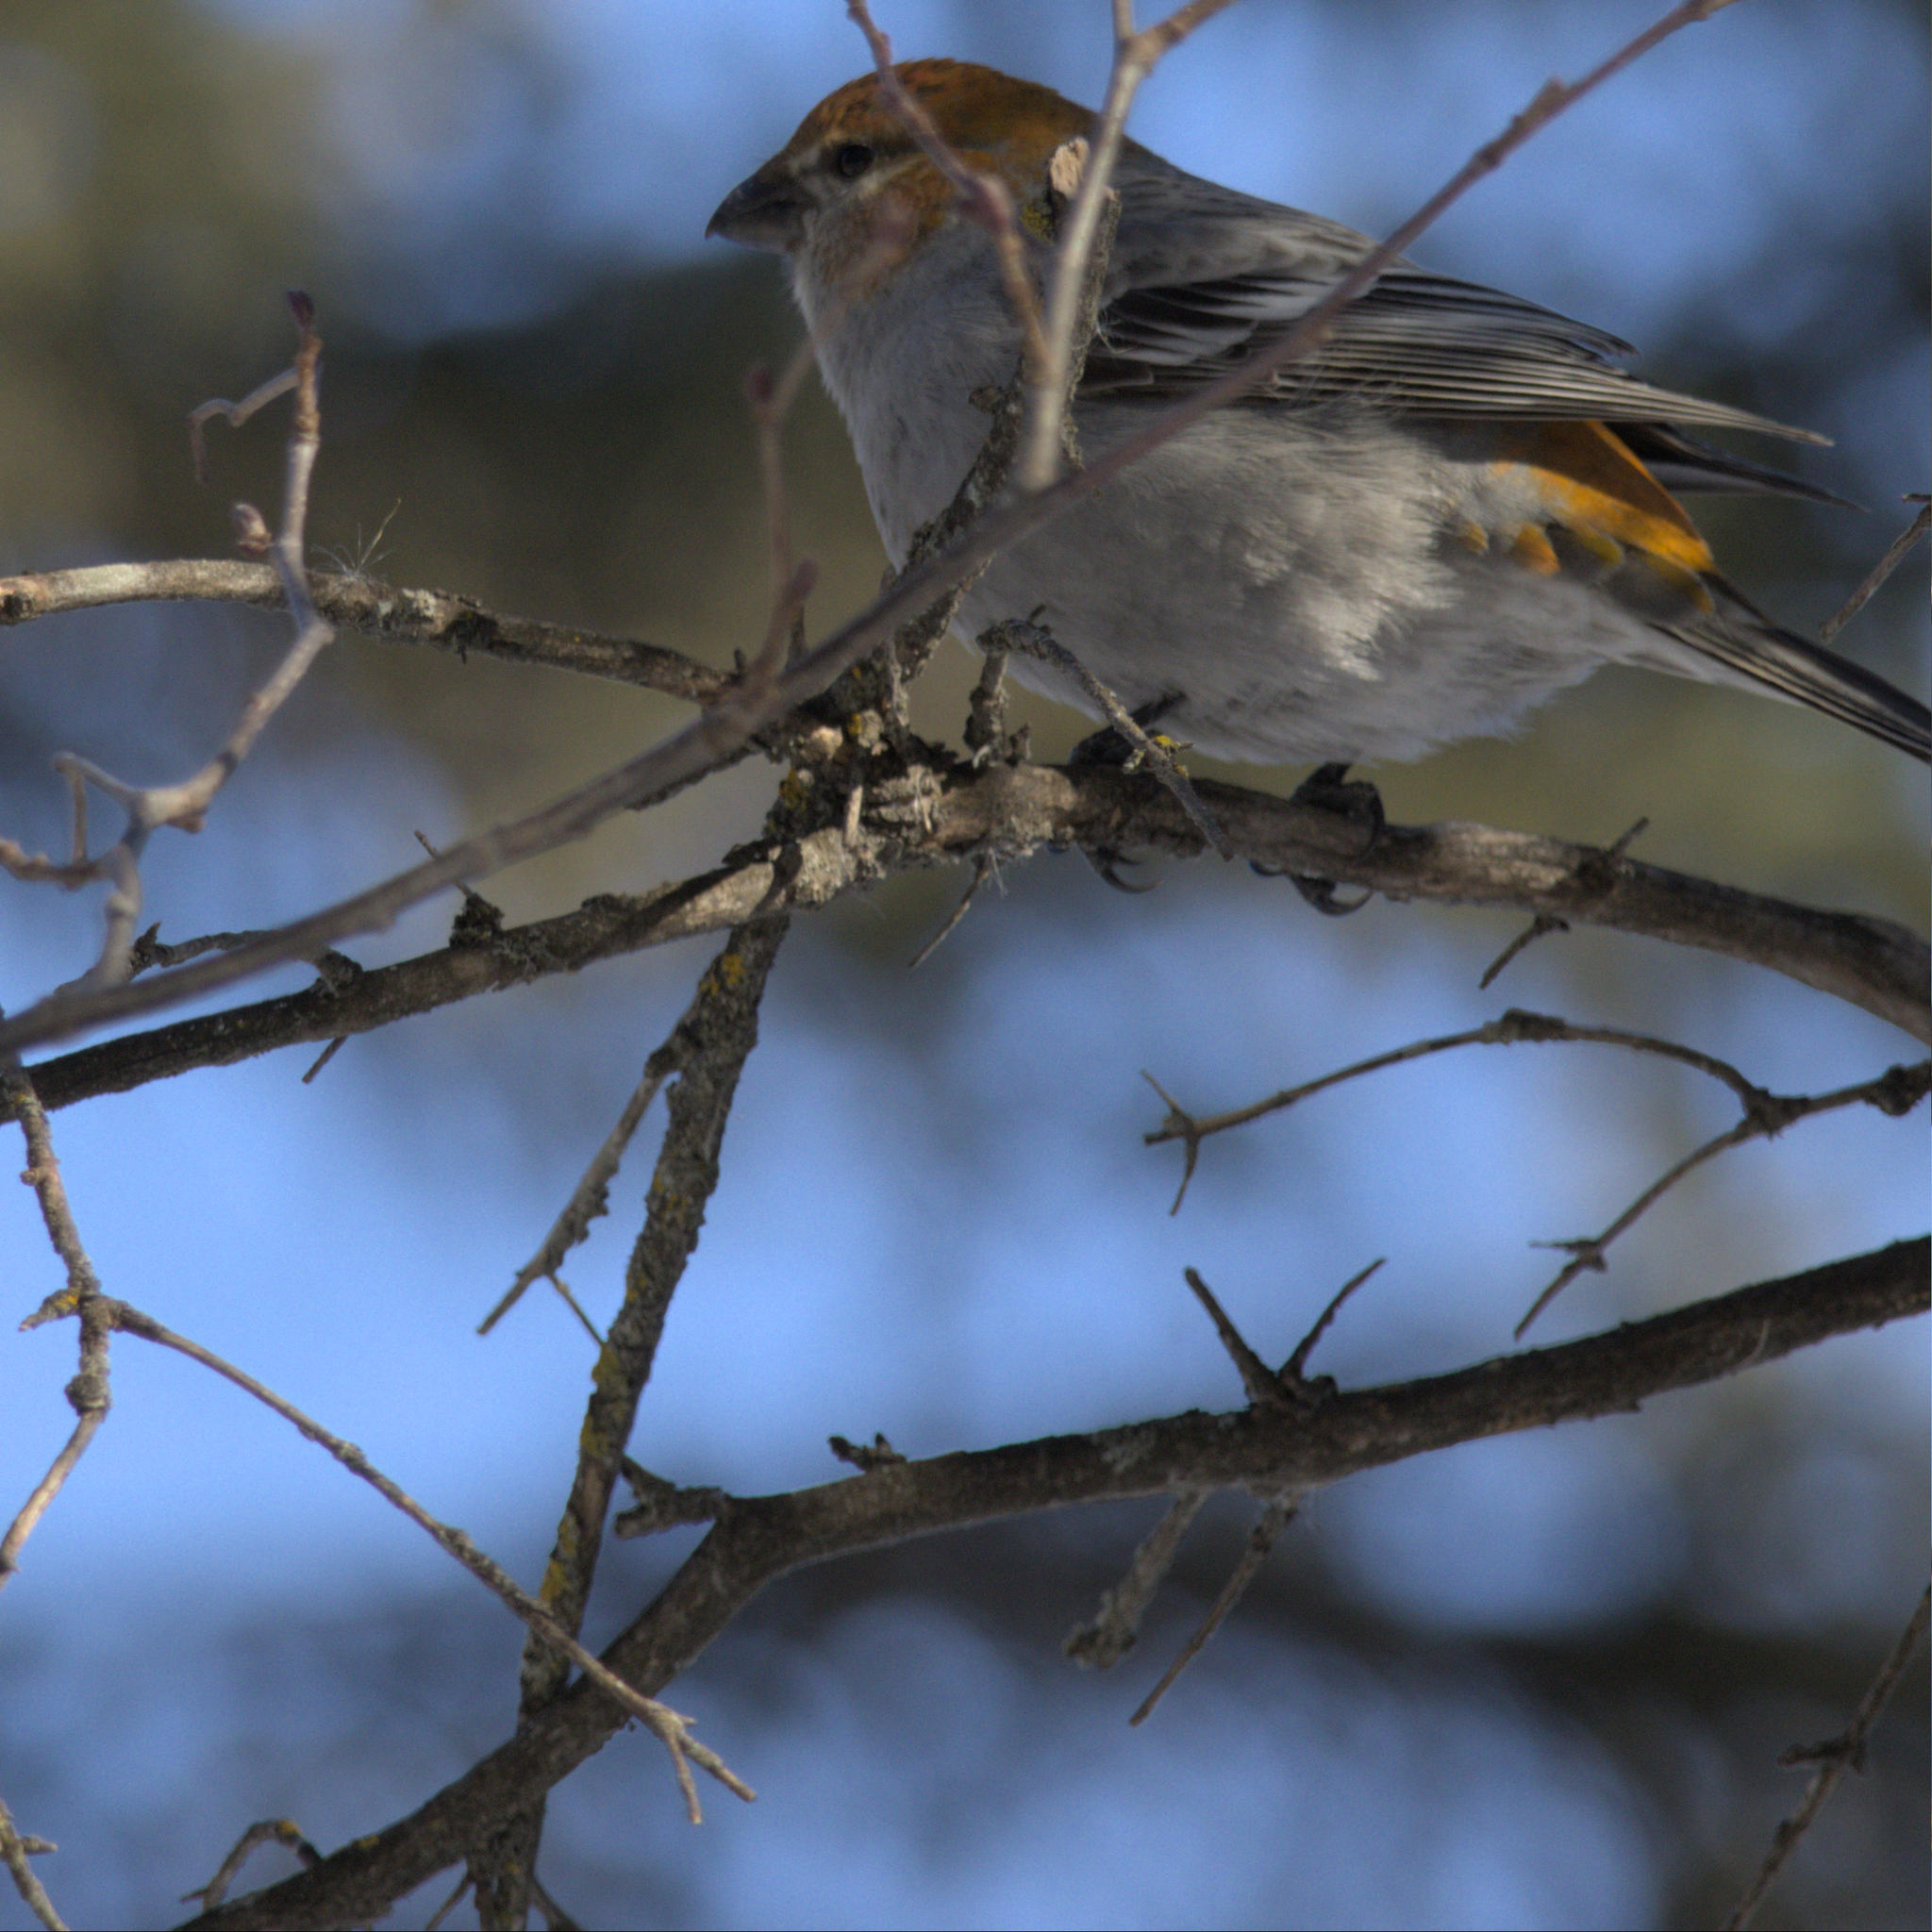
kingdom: Animalia
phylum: Chordata
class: Aves
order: Passeriformes
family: Fringillidae
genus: Pinicola
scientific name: Pinicola enucleator
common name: Pine grosbeak
